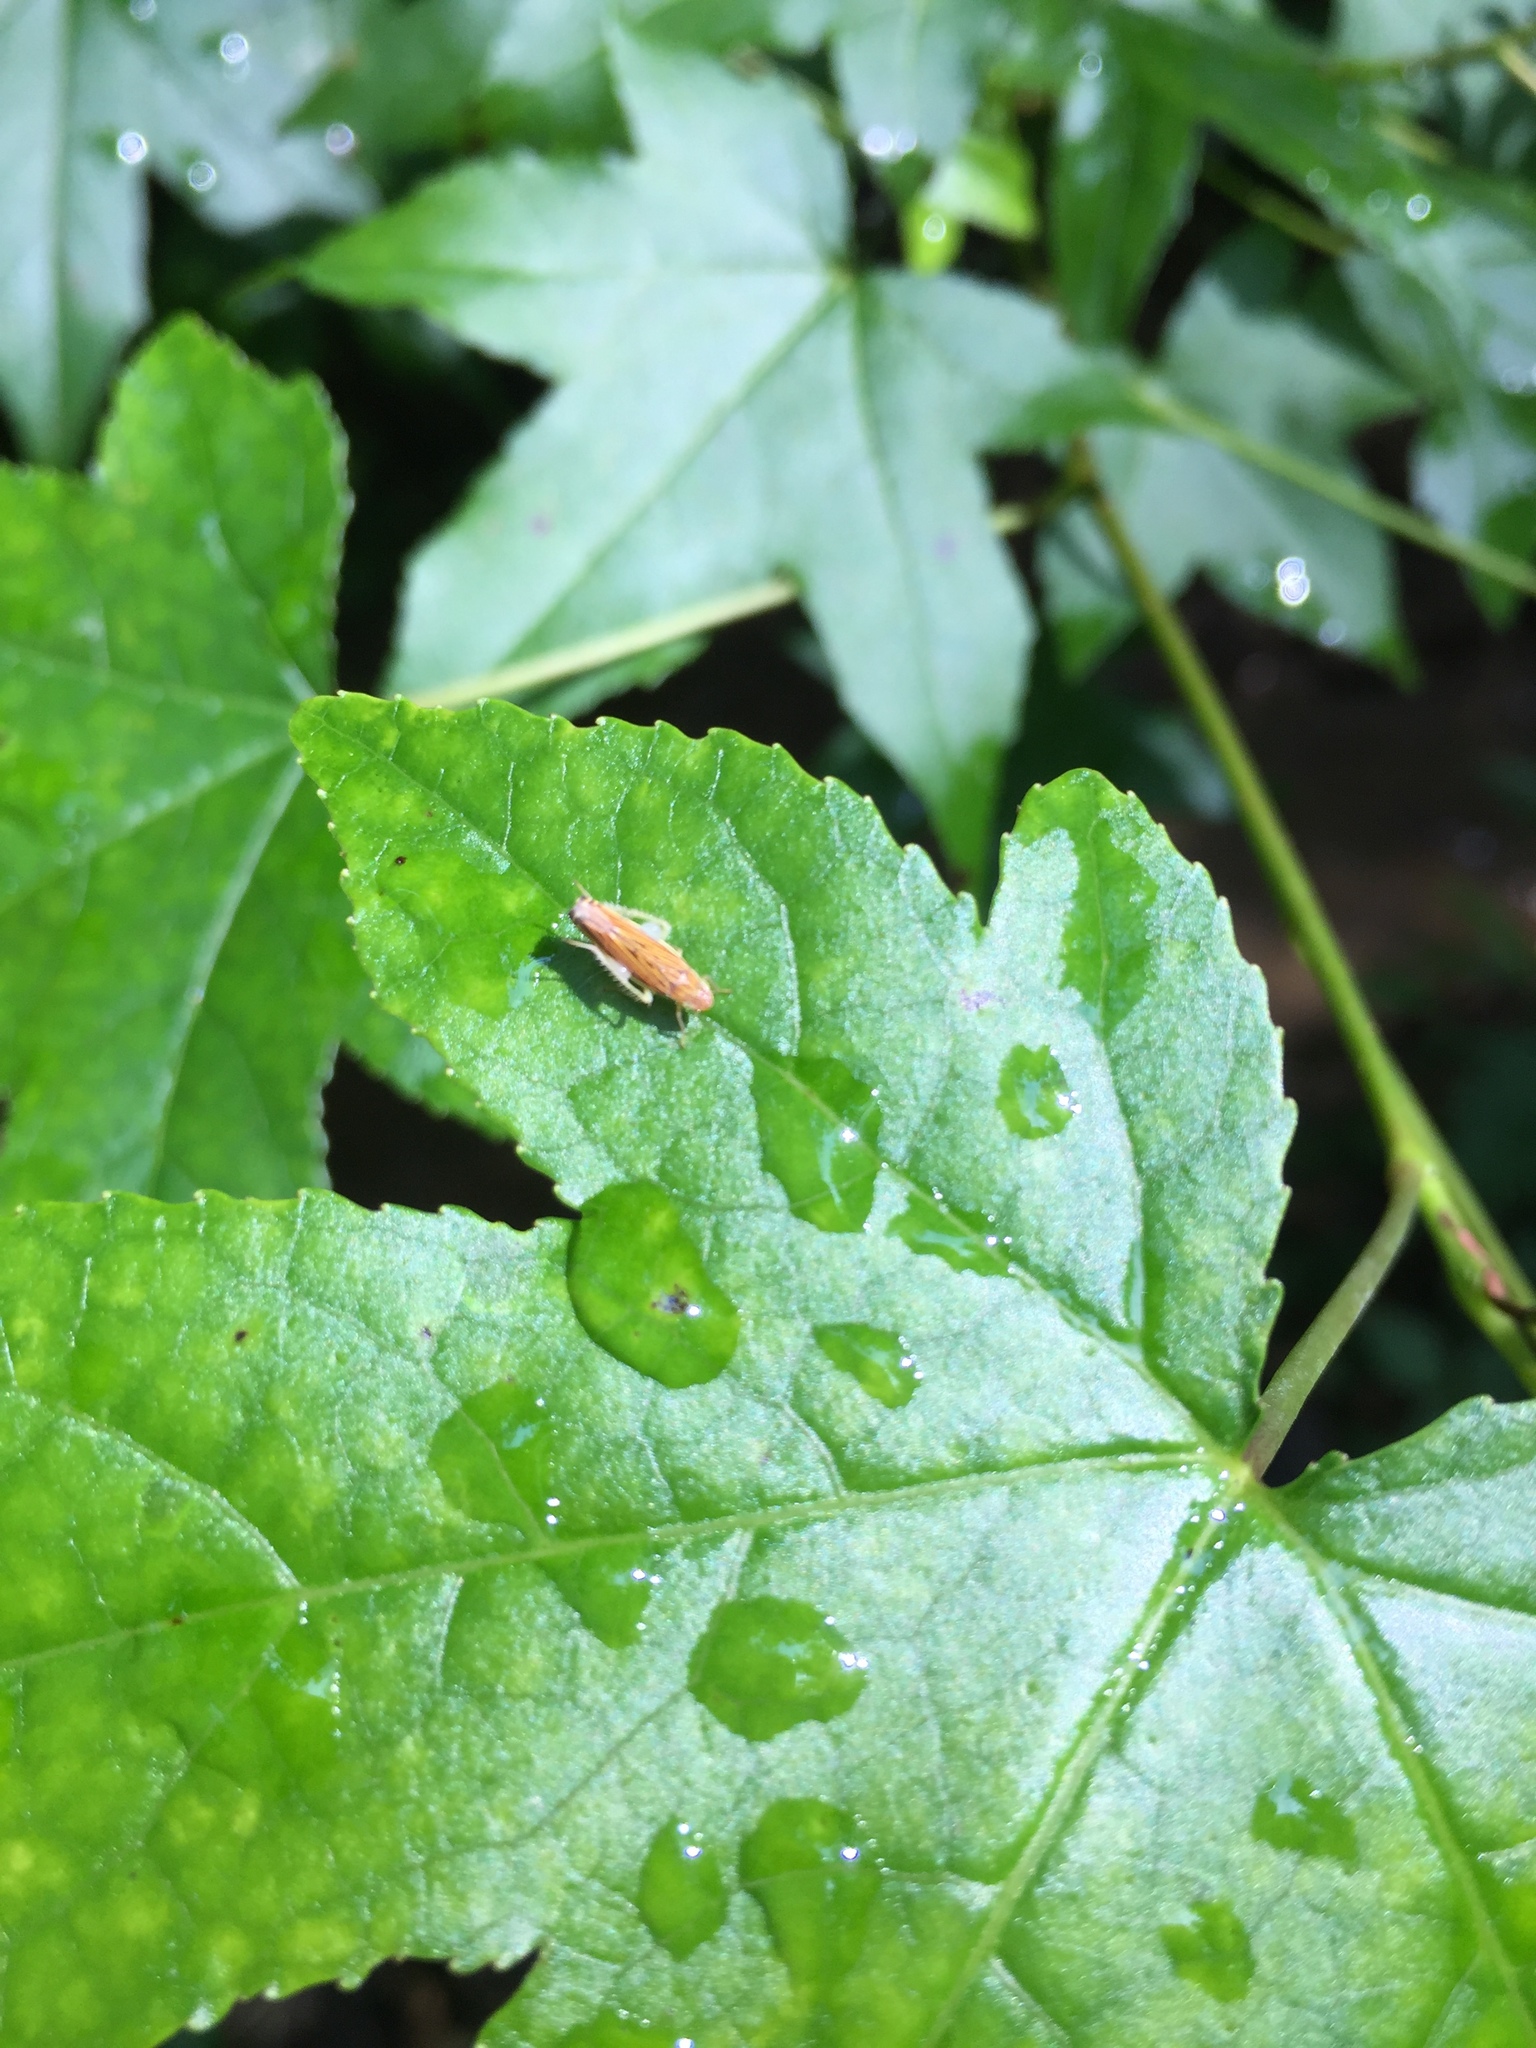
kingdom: Animalia
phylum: Arthropoda
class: Insecta
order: Hemiptera
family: Cicadellidae
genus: Sibovia
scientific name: Sibovia occatoria
